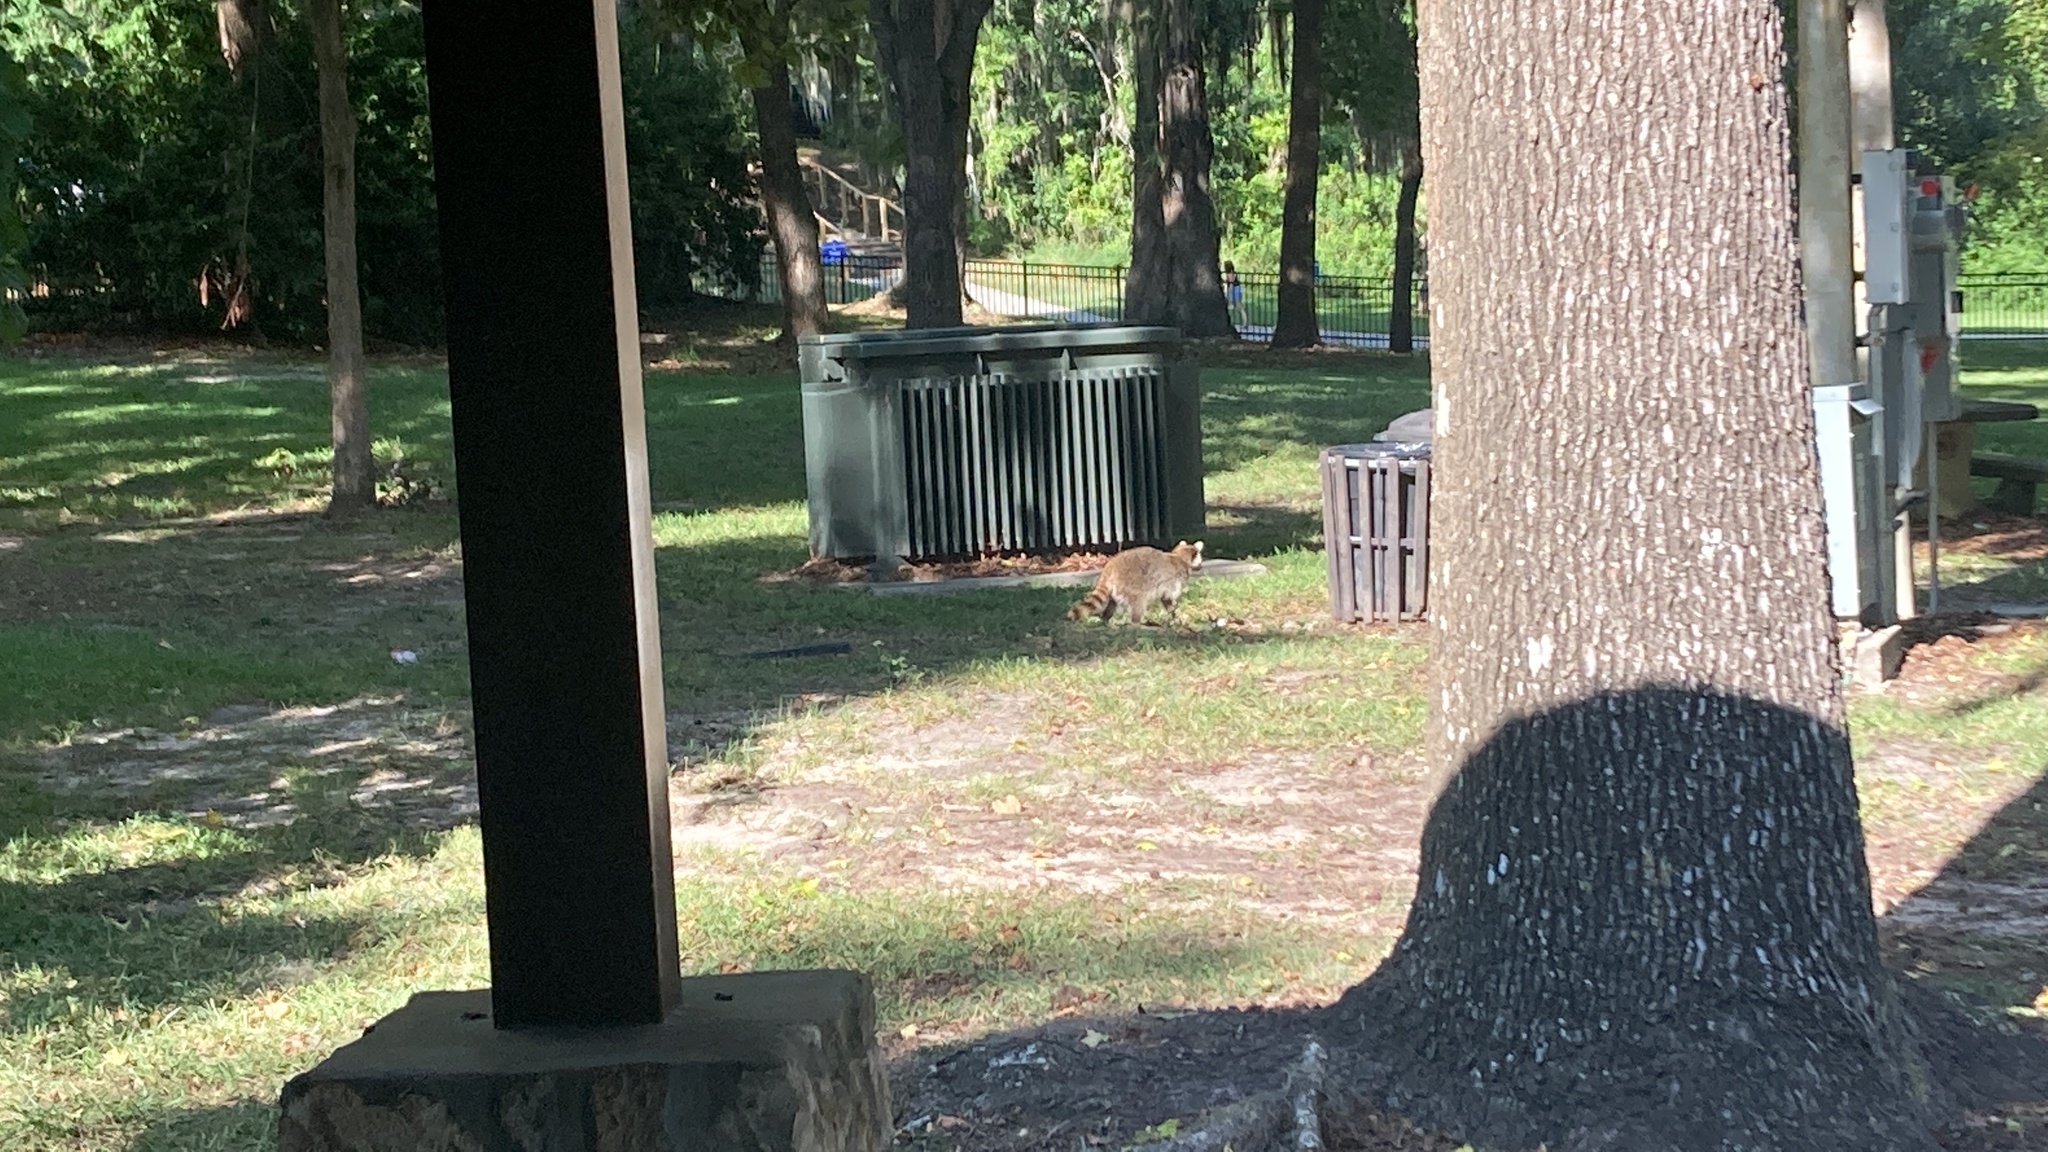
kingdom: Animalia
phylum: Chordata
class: Mammalia
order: Carnivora
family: Procyonidae
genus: Procyon
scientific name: Procyon lotor
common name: Raccoon
